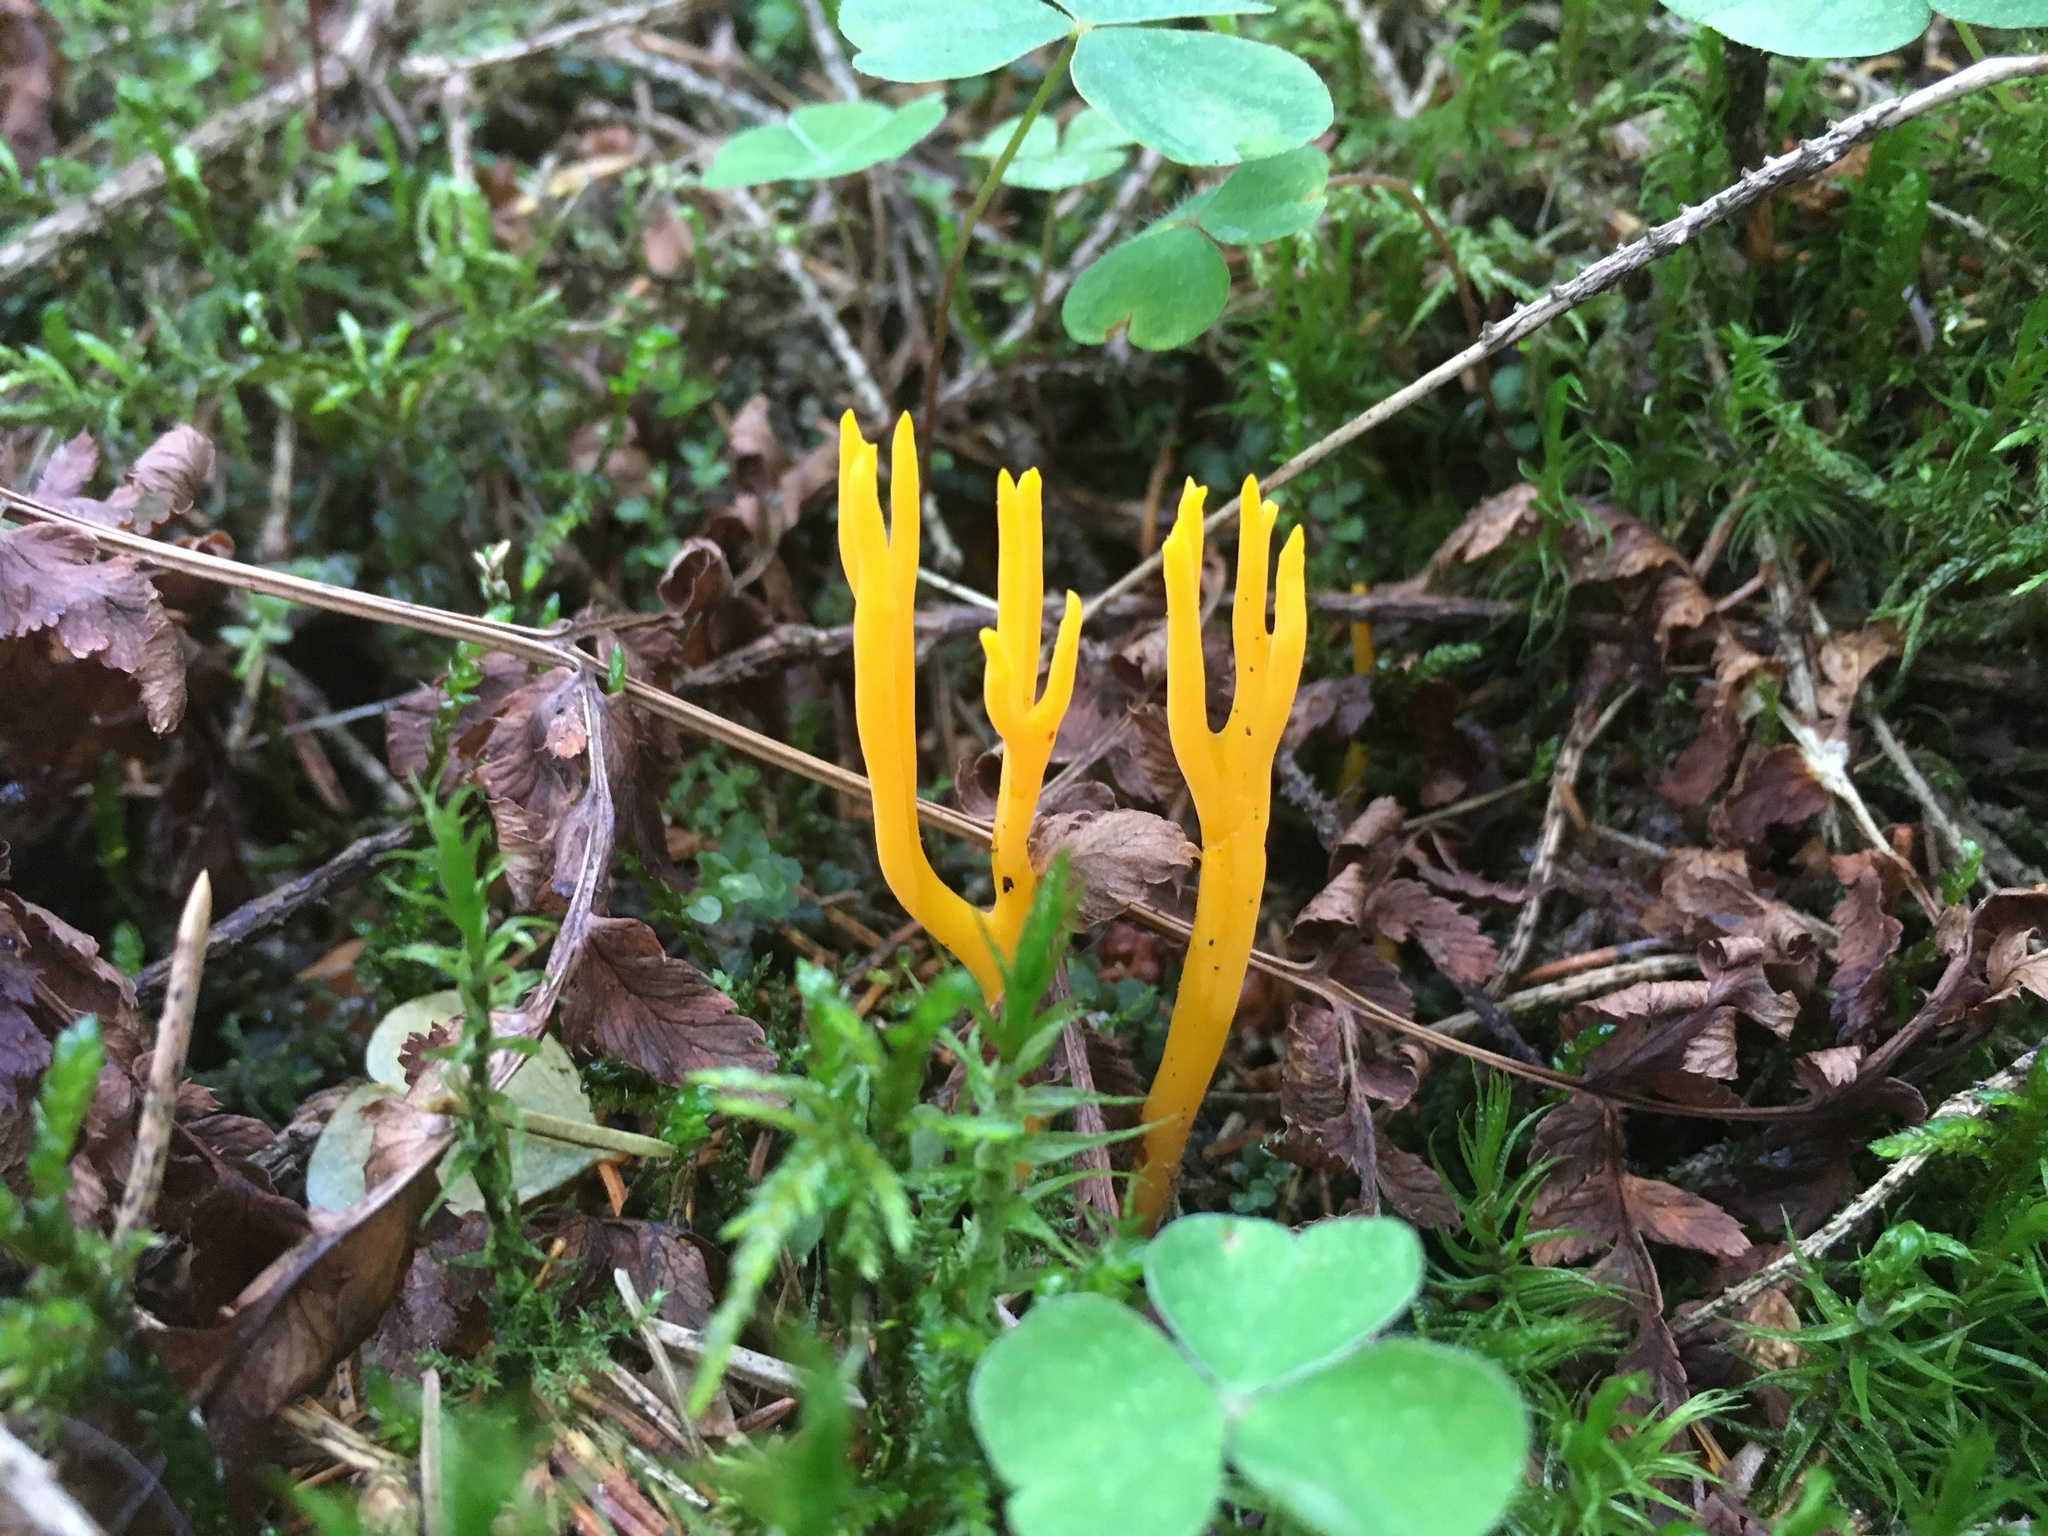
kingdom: Fungi
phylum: Basidiomycota
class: Dacrymycetes
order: Dacrymycetales
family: Dacrymycetaceae
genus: Calocera
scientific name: Calocera viscosa
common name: Yellow stagshorn
